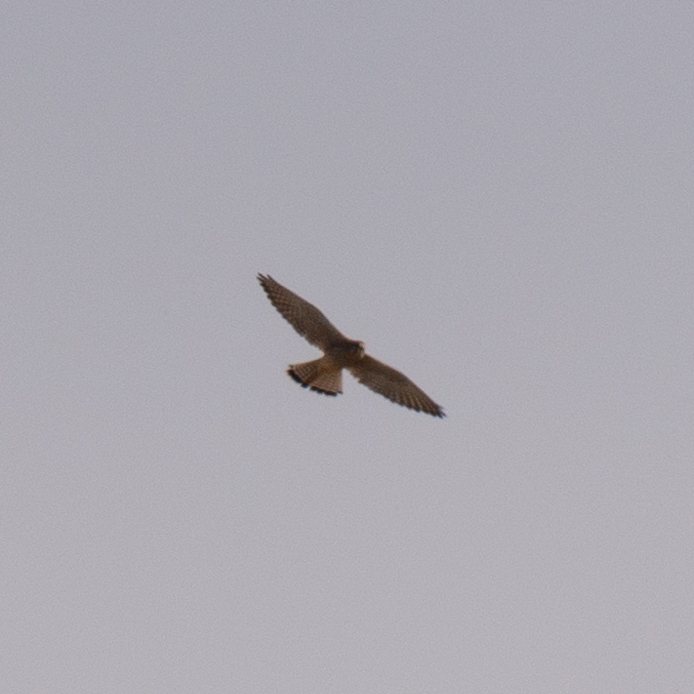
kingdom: Animalia
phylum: Chordata
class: Aves
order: Falconiformes
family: Falconidae
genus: Falco
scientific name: Falco tinnunculus
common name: Common kestrel
